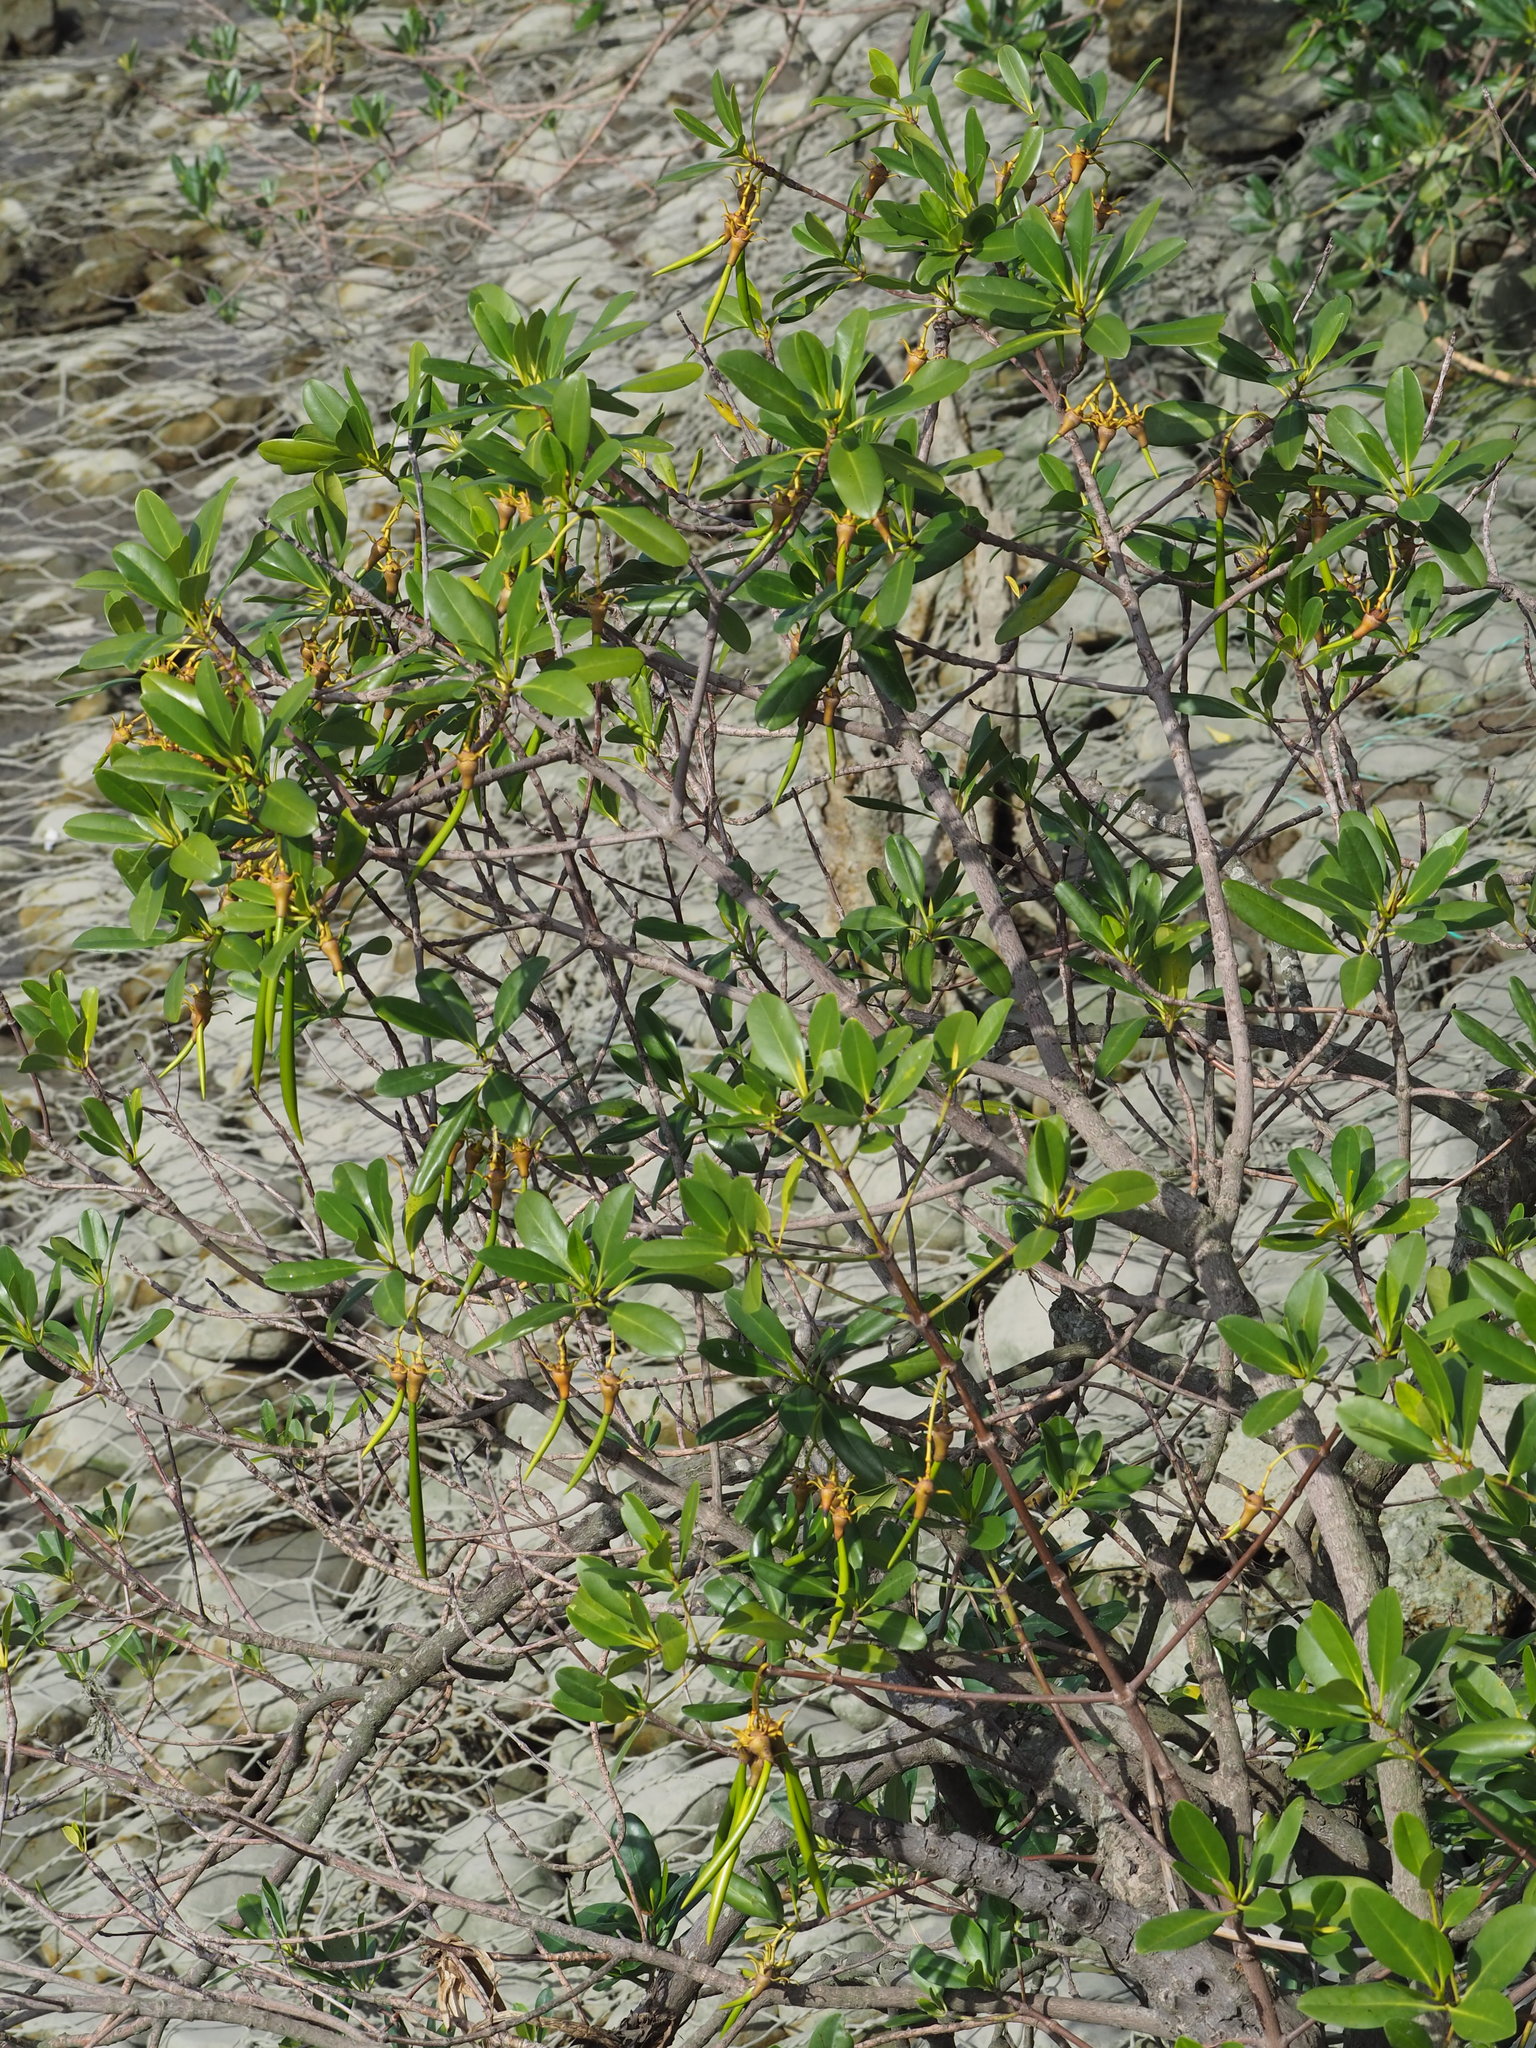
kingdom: Plantae
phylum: Tracheophyta
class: Magnoliopsida
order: Malpighiales
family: Rhizophoraceae
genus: Kandelia
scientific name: Kandelia obovata
